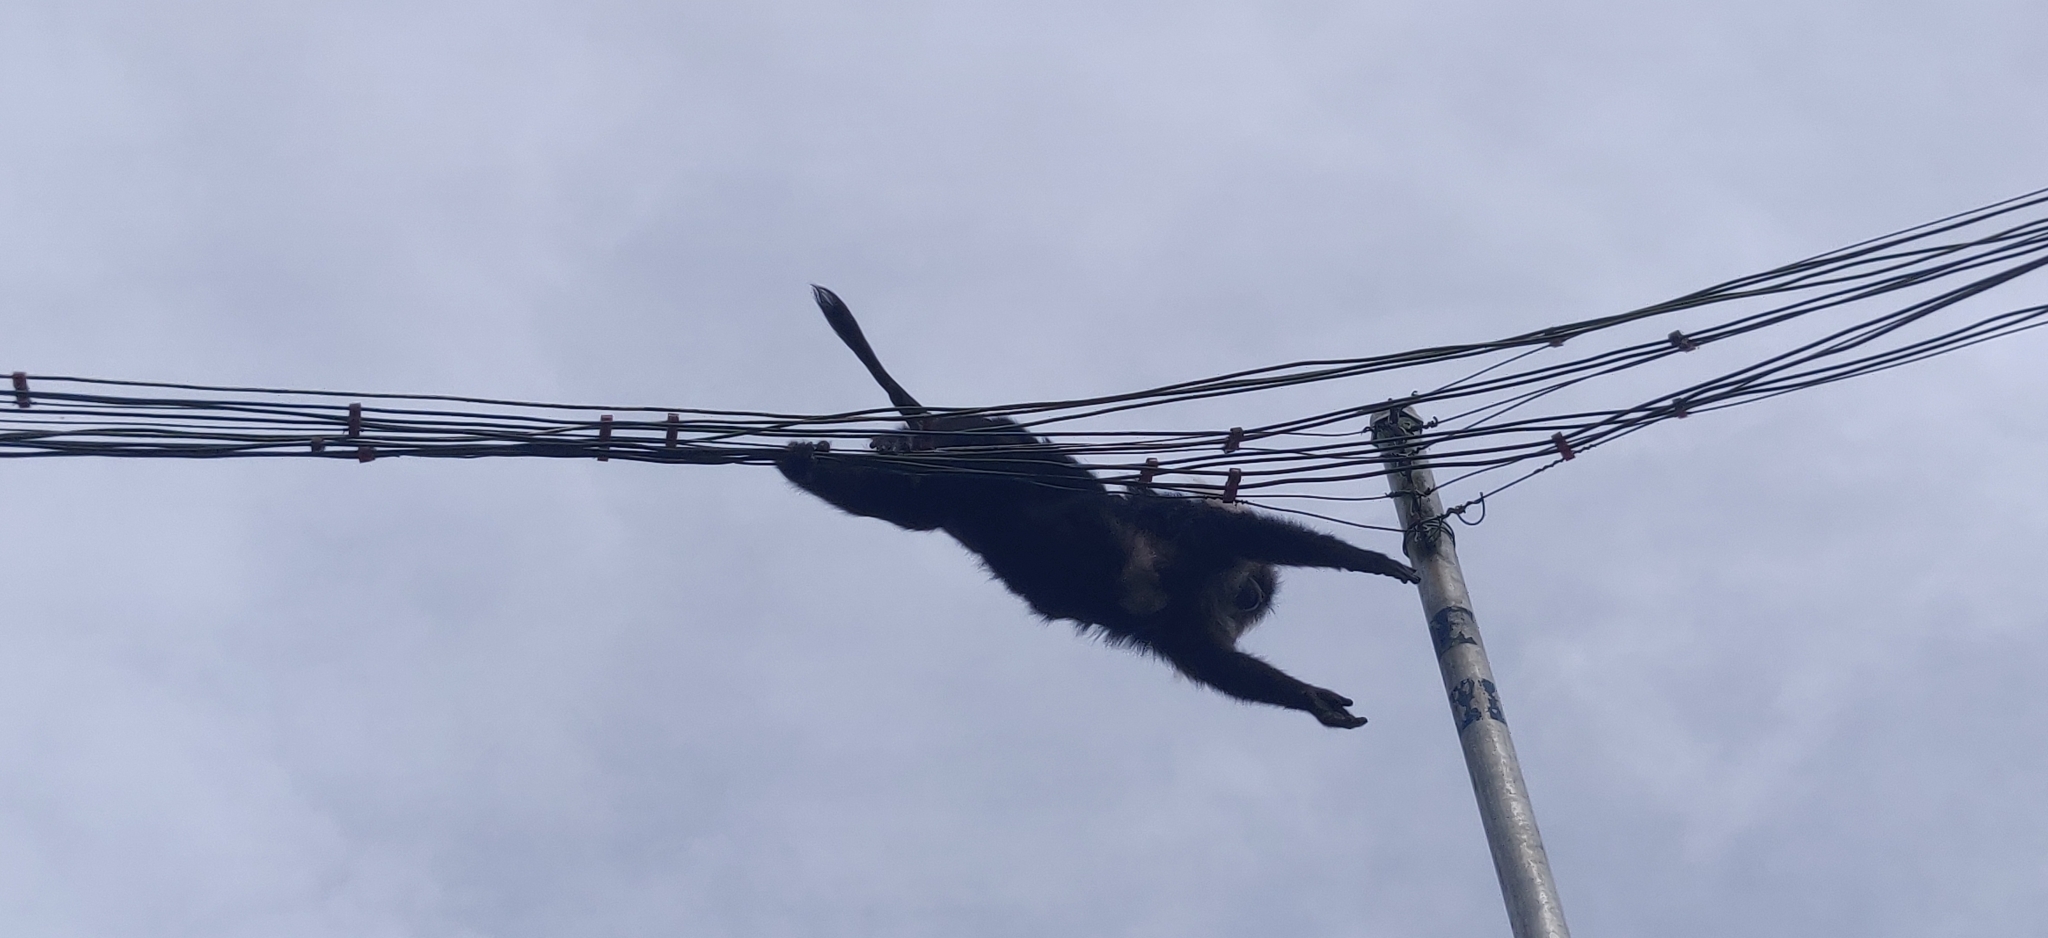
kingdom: Animalia
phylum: Chordata
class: Mammalia
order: Primates
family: Cercopithecidae
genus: Macaca
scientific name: Macaca silenus
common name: Lion-tailed macaque
